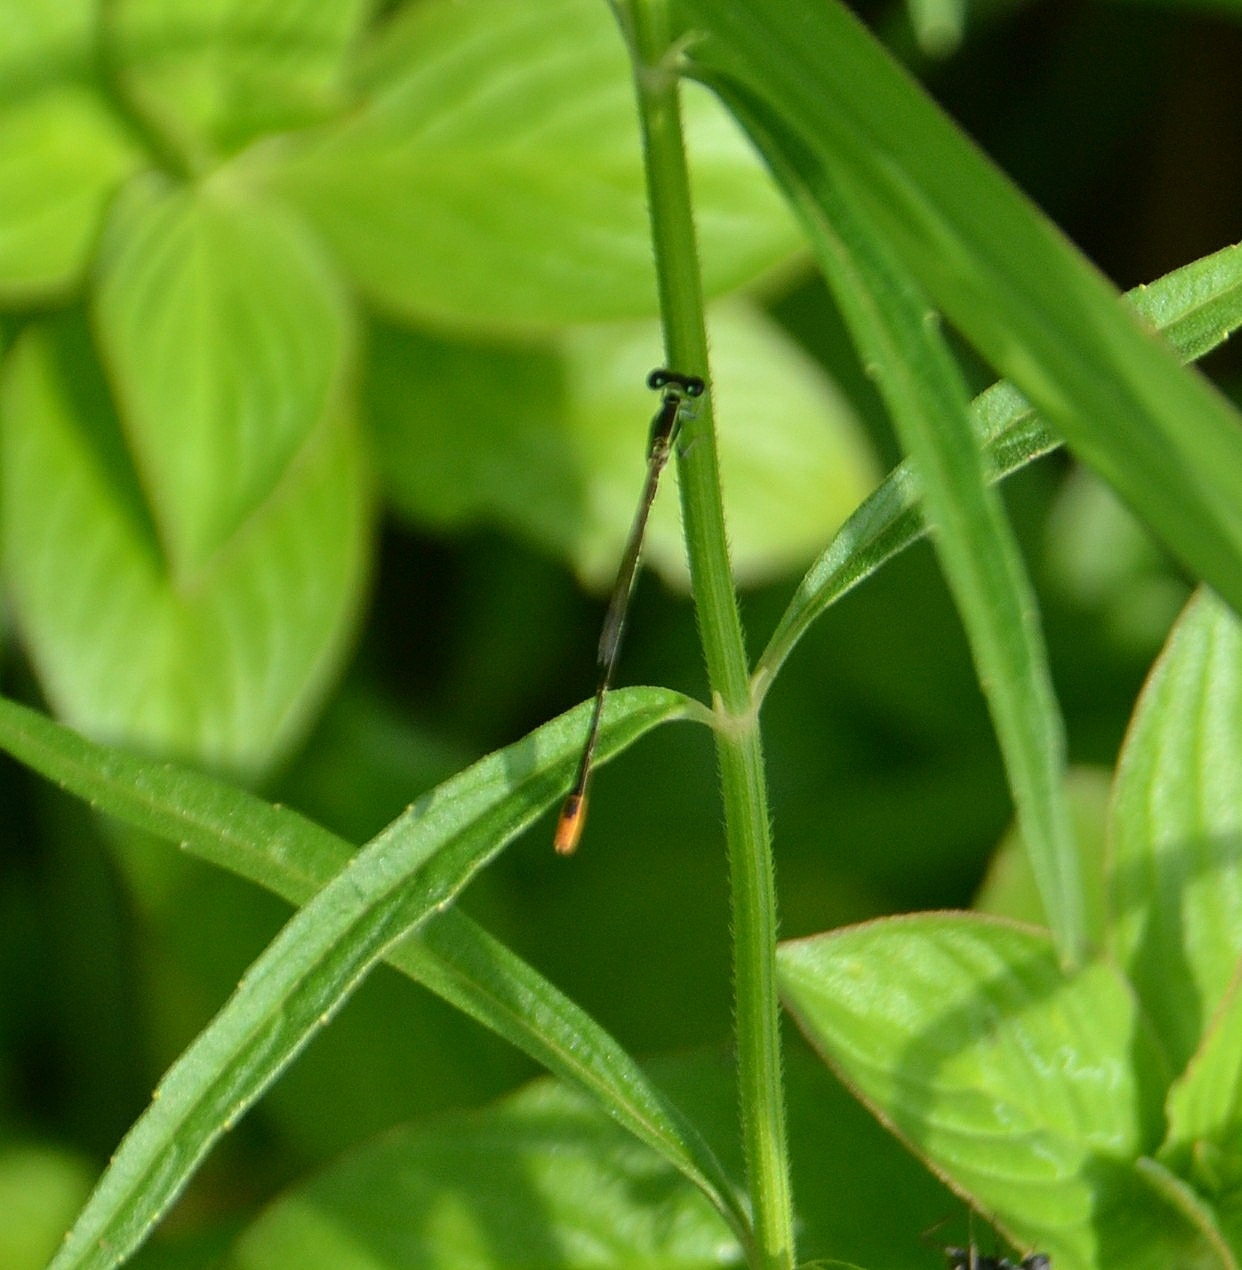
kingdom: Animalia
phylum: Arthropoda
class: Insecta
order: Odonata
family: Coenagrionidae
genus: Agriocnemis
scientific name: Agriocnemis pygmaea
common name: Pygmy wisp
